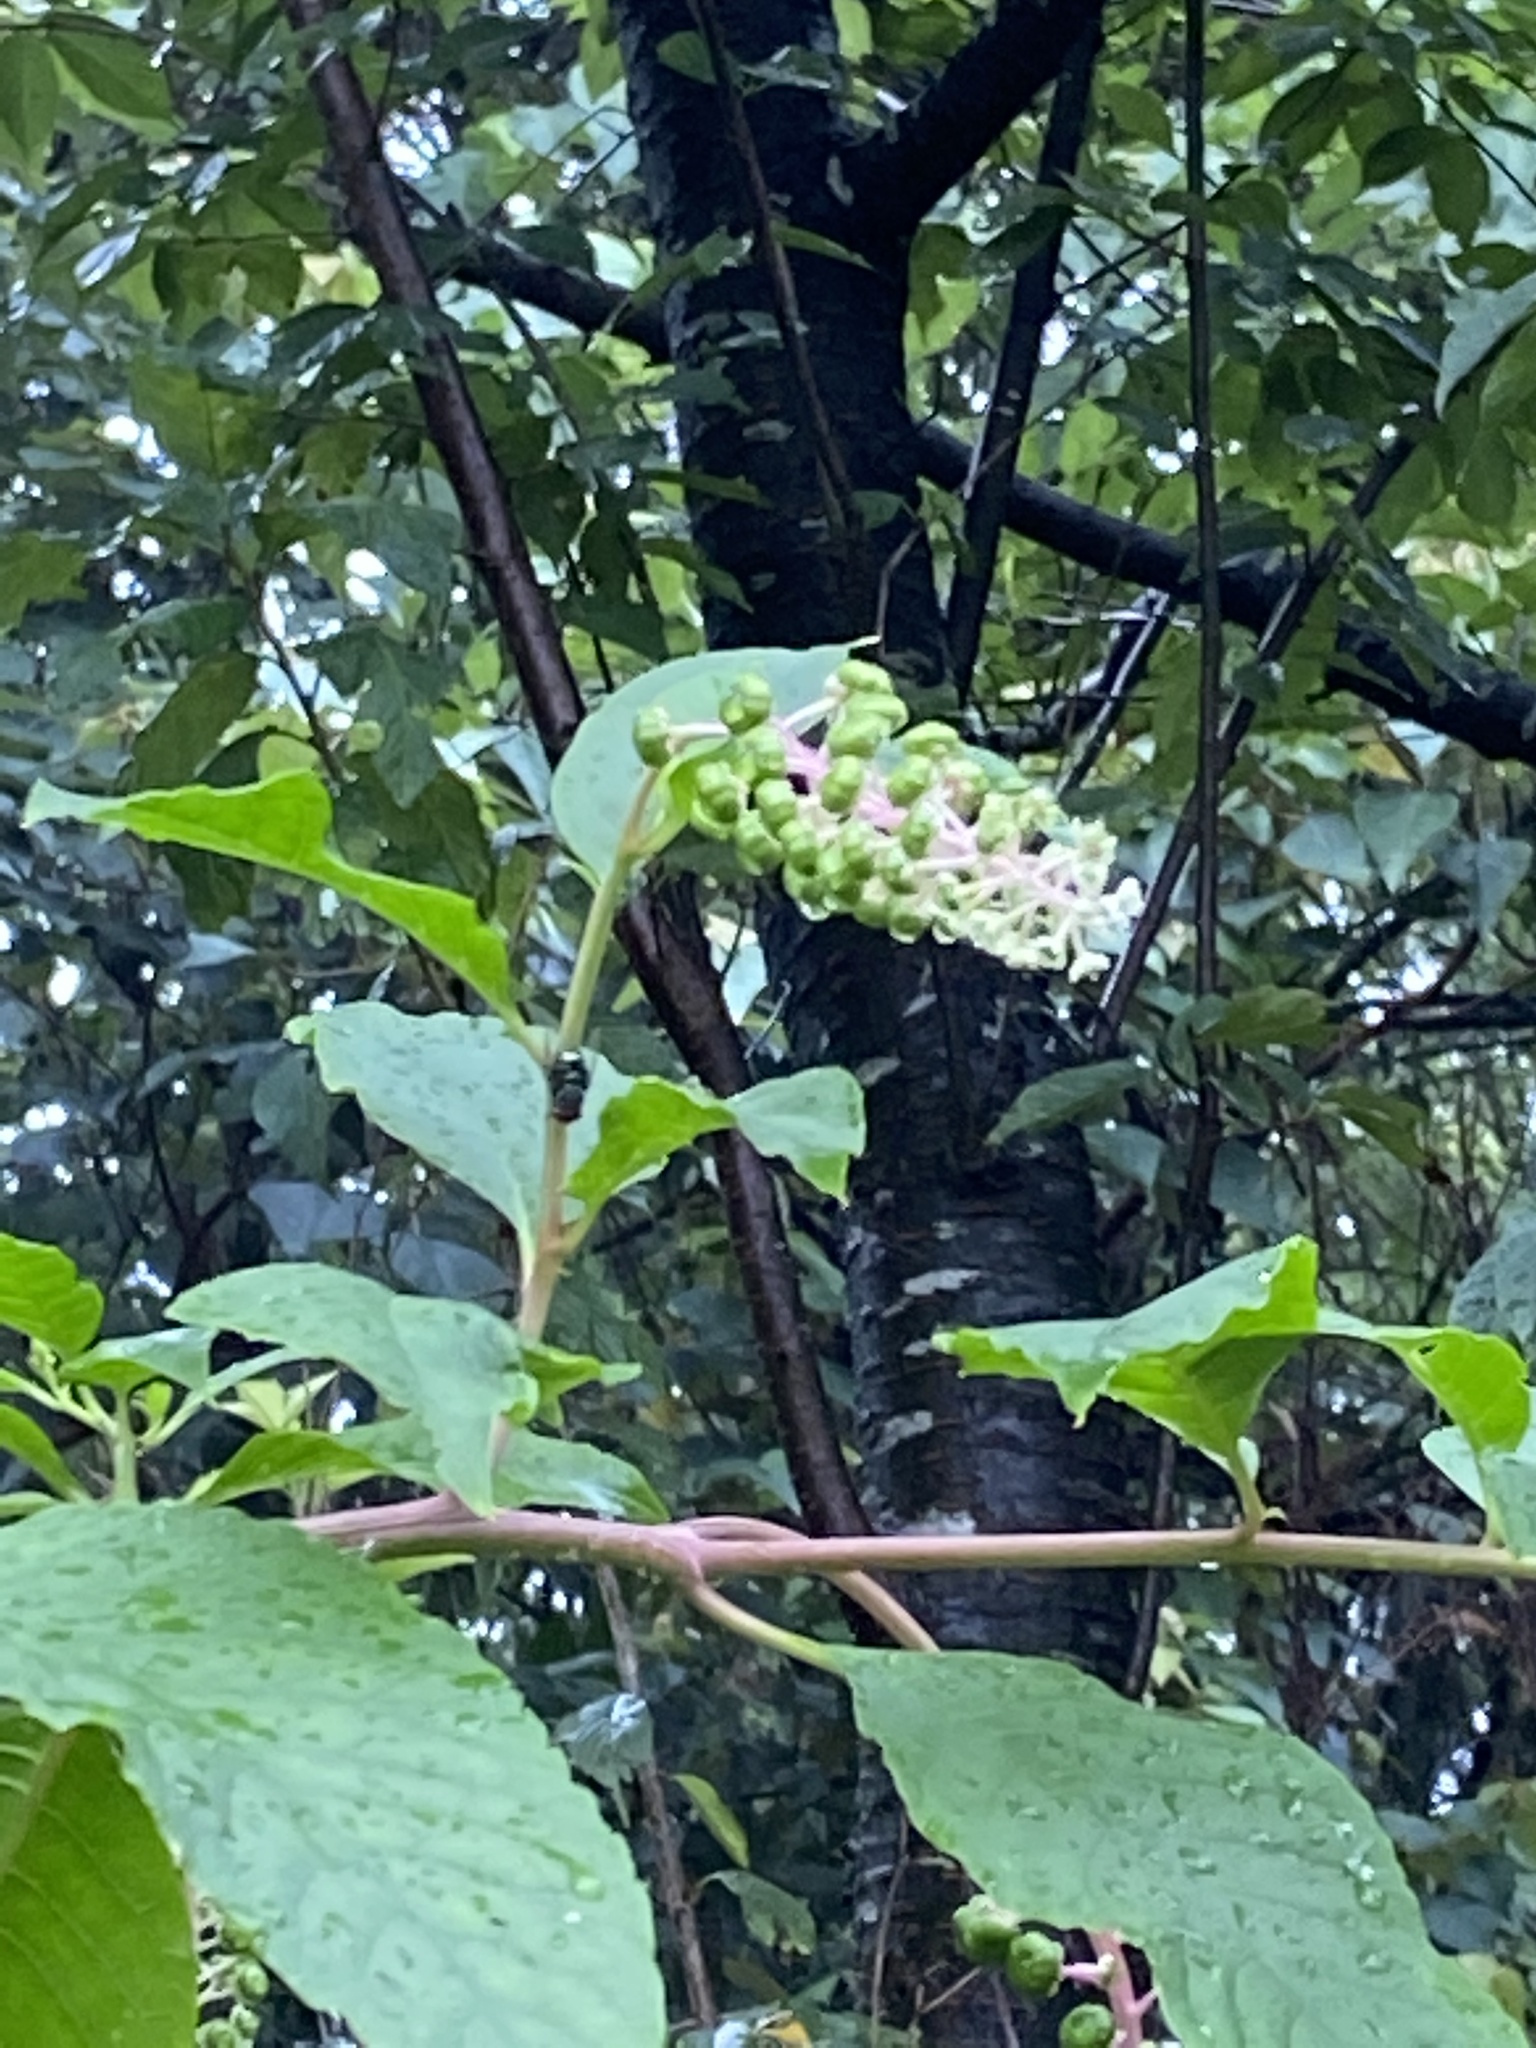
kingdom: Plantae
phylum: Tracheophyta
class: Magnoliopsida
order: Caryophyllales
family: Phytolaccaceae
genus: Phytolacca
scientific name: Phytolacca americana
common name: American pokeweed
